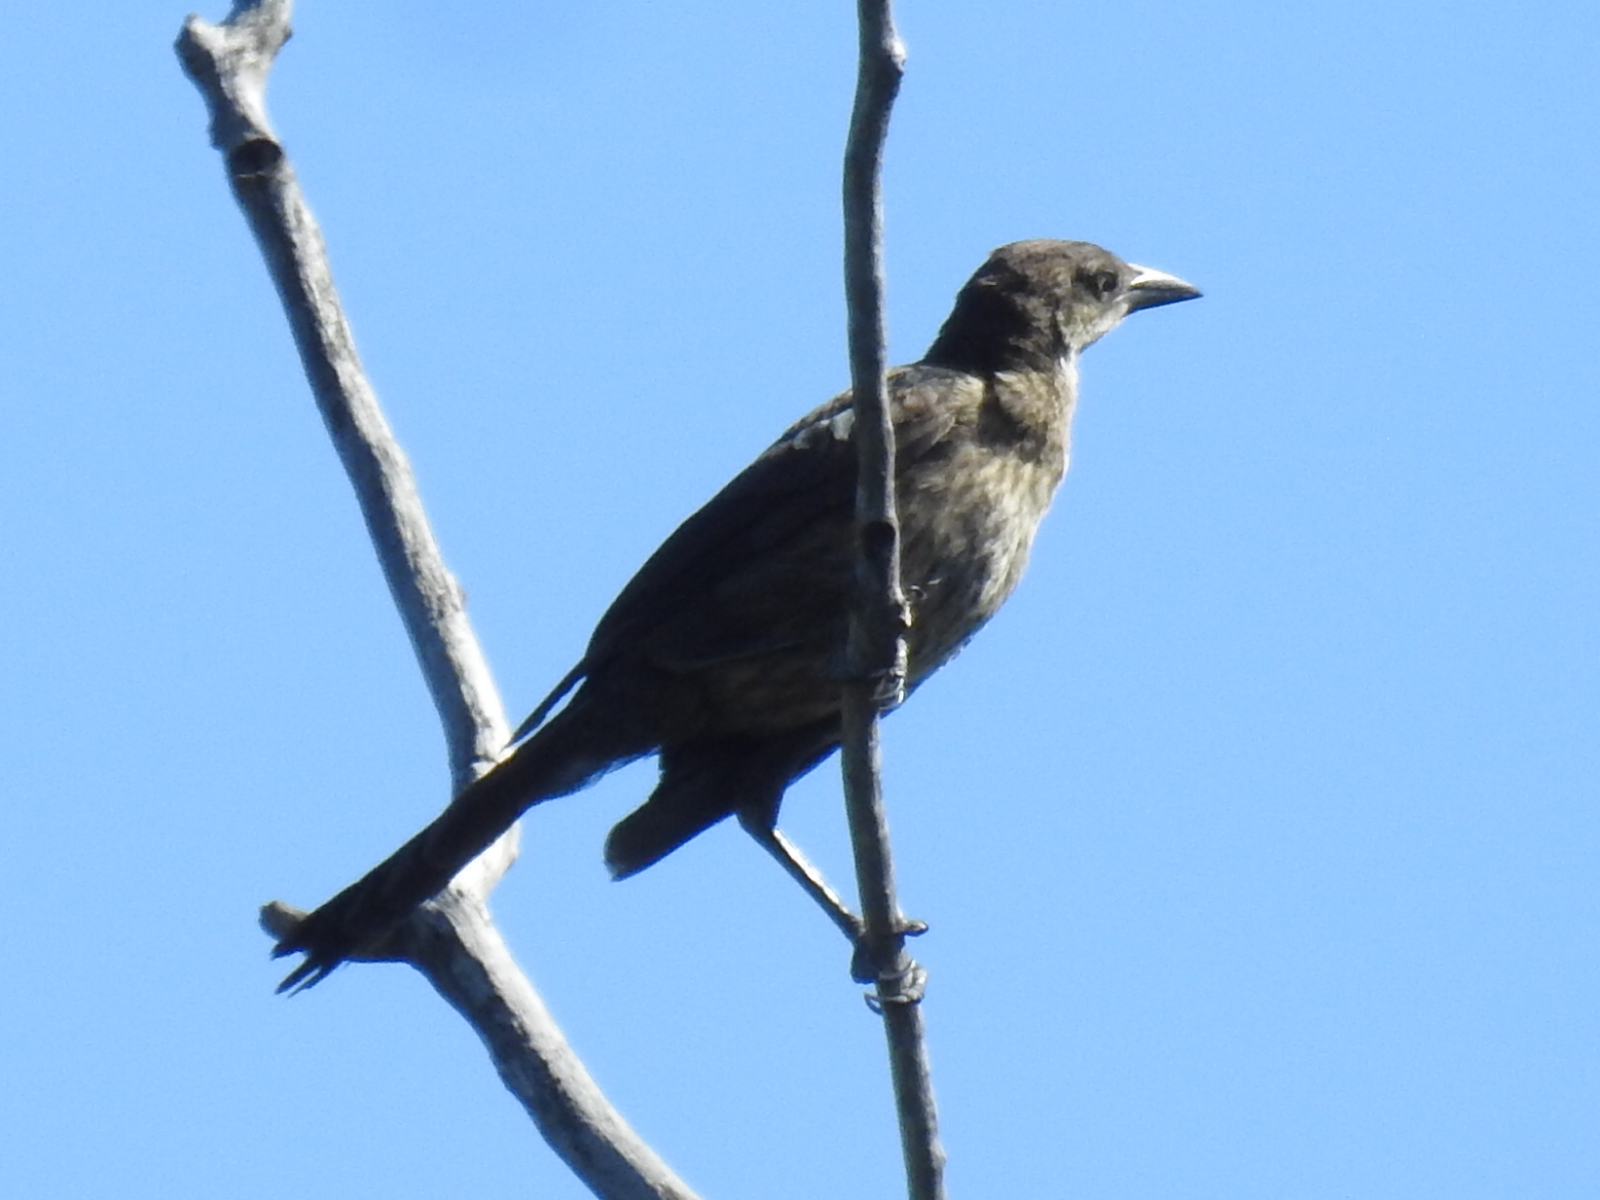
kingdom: Animalia
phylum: Chordata
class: Aves
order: Passeriformes
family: Icteridae
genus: Quiscalus
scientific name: Quiscalus mexicanus
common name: Great-tailed grackle
